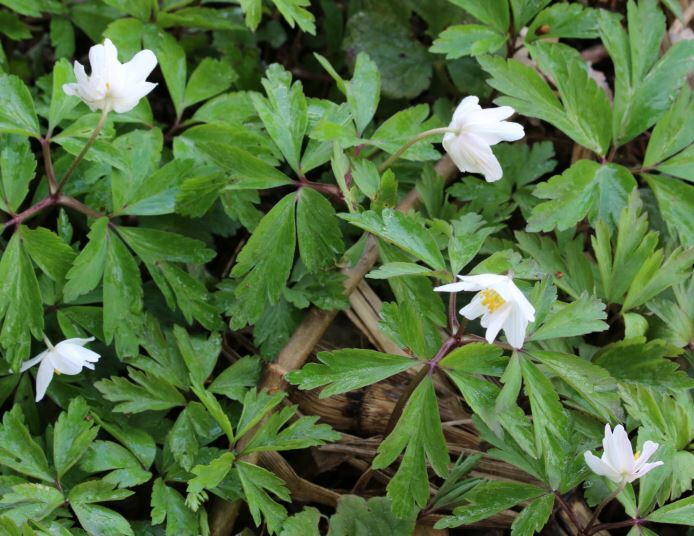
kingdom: Plantae
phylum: Tracheophyta
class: Magnoliopsida
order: Ranunculales
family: Ranunculaceae
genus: Anemone
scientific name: Anemone nemorosa
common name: Wood anemone
